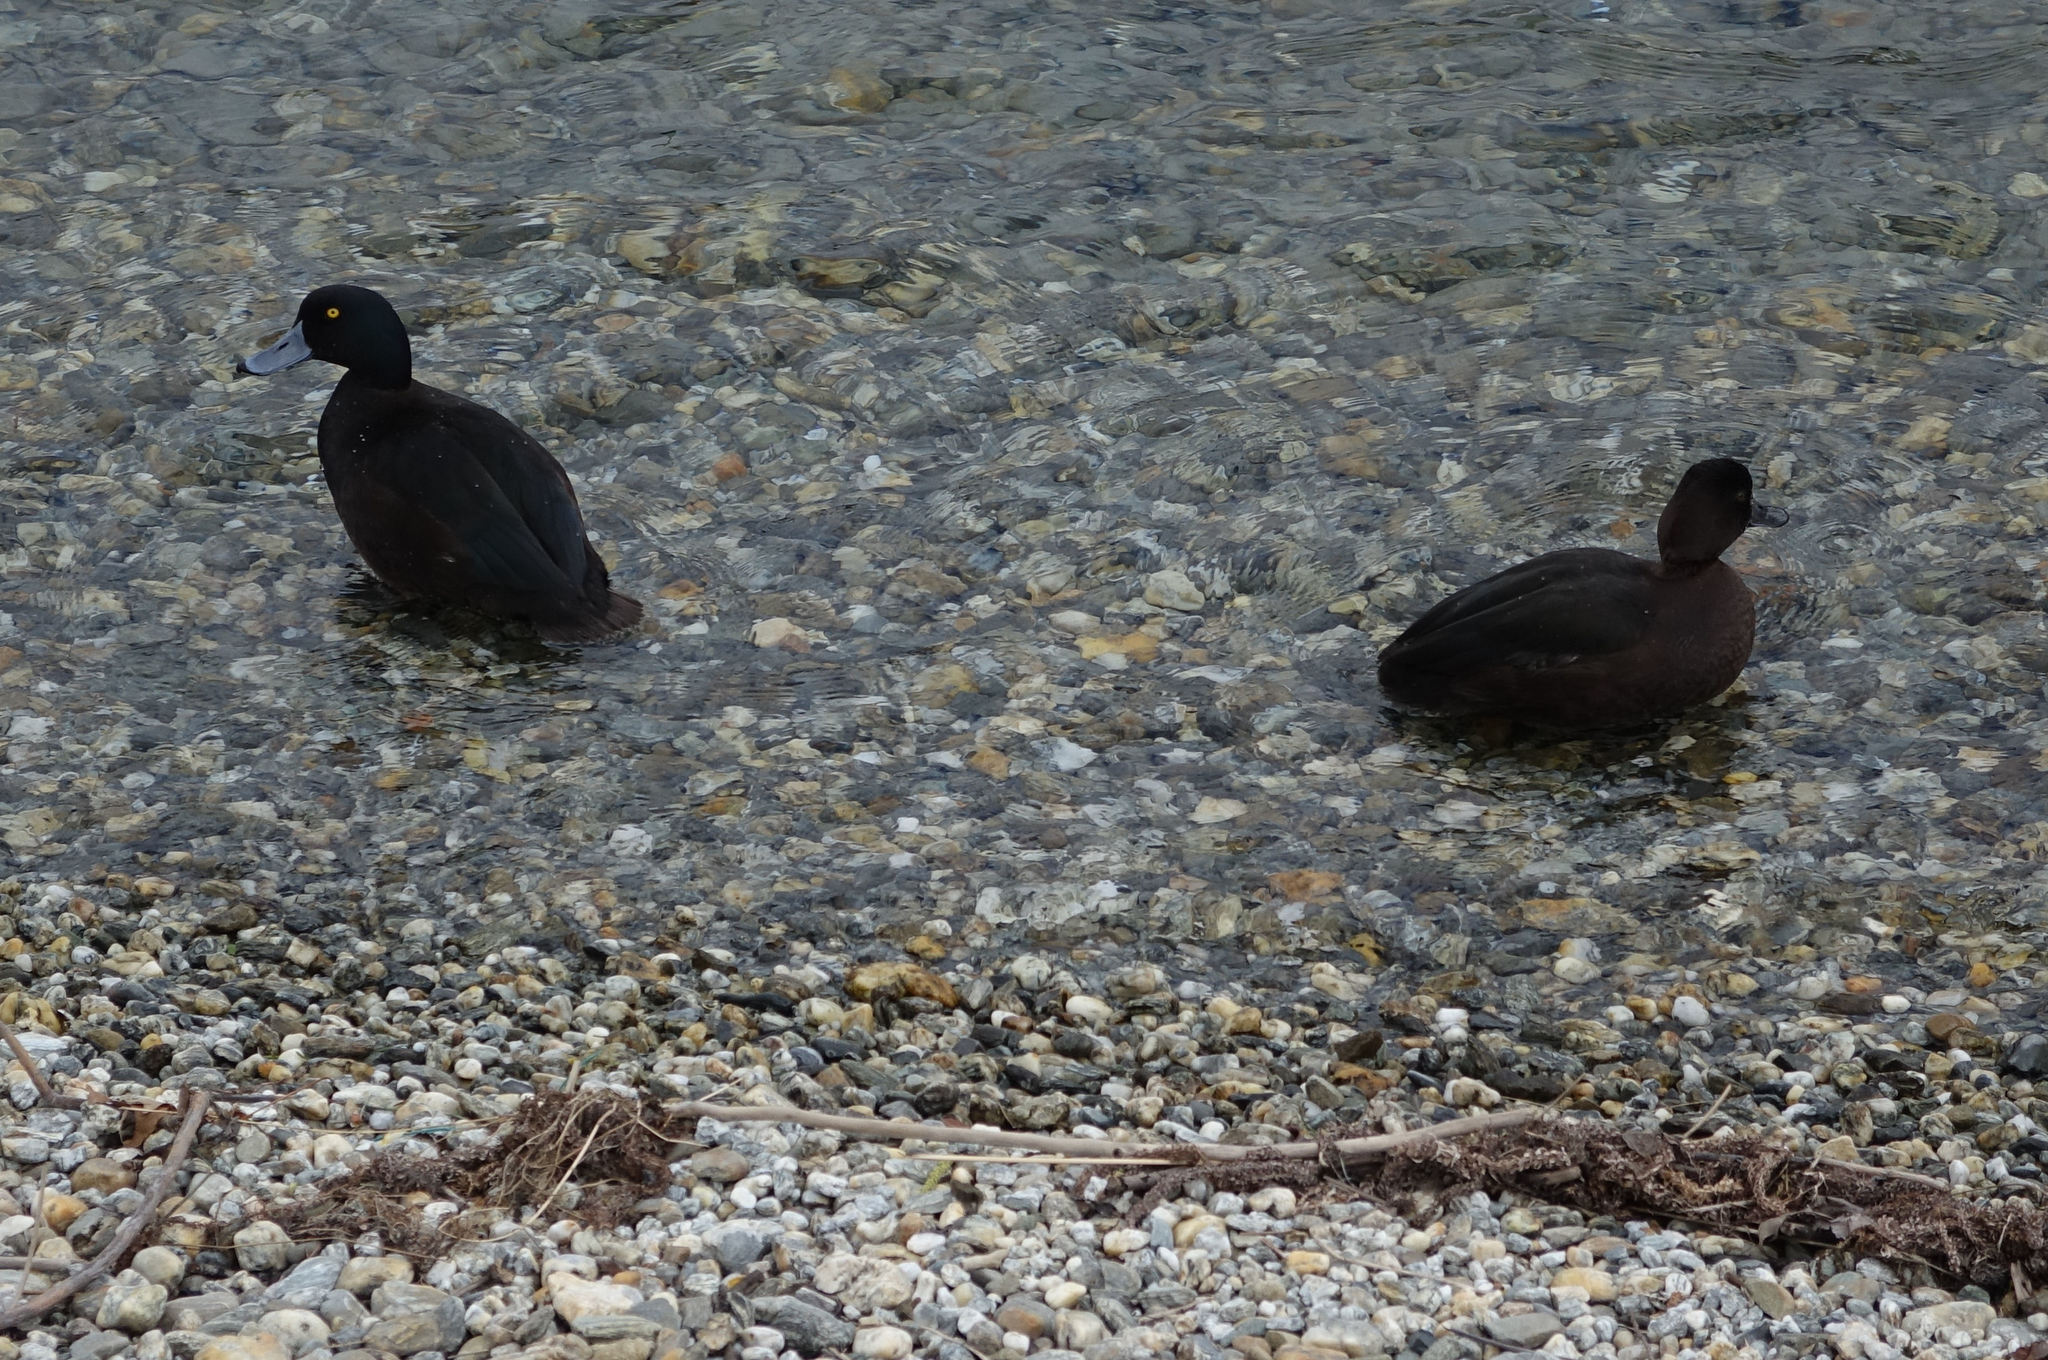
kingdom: Animalia
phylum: Chordata
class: Aves
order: Anseriformes
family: Anatidae
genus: Aythya
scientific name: Aythya novaeseelandiae
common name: New zealand scaup
